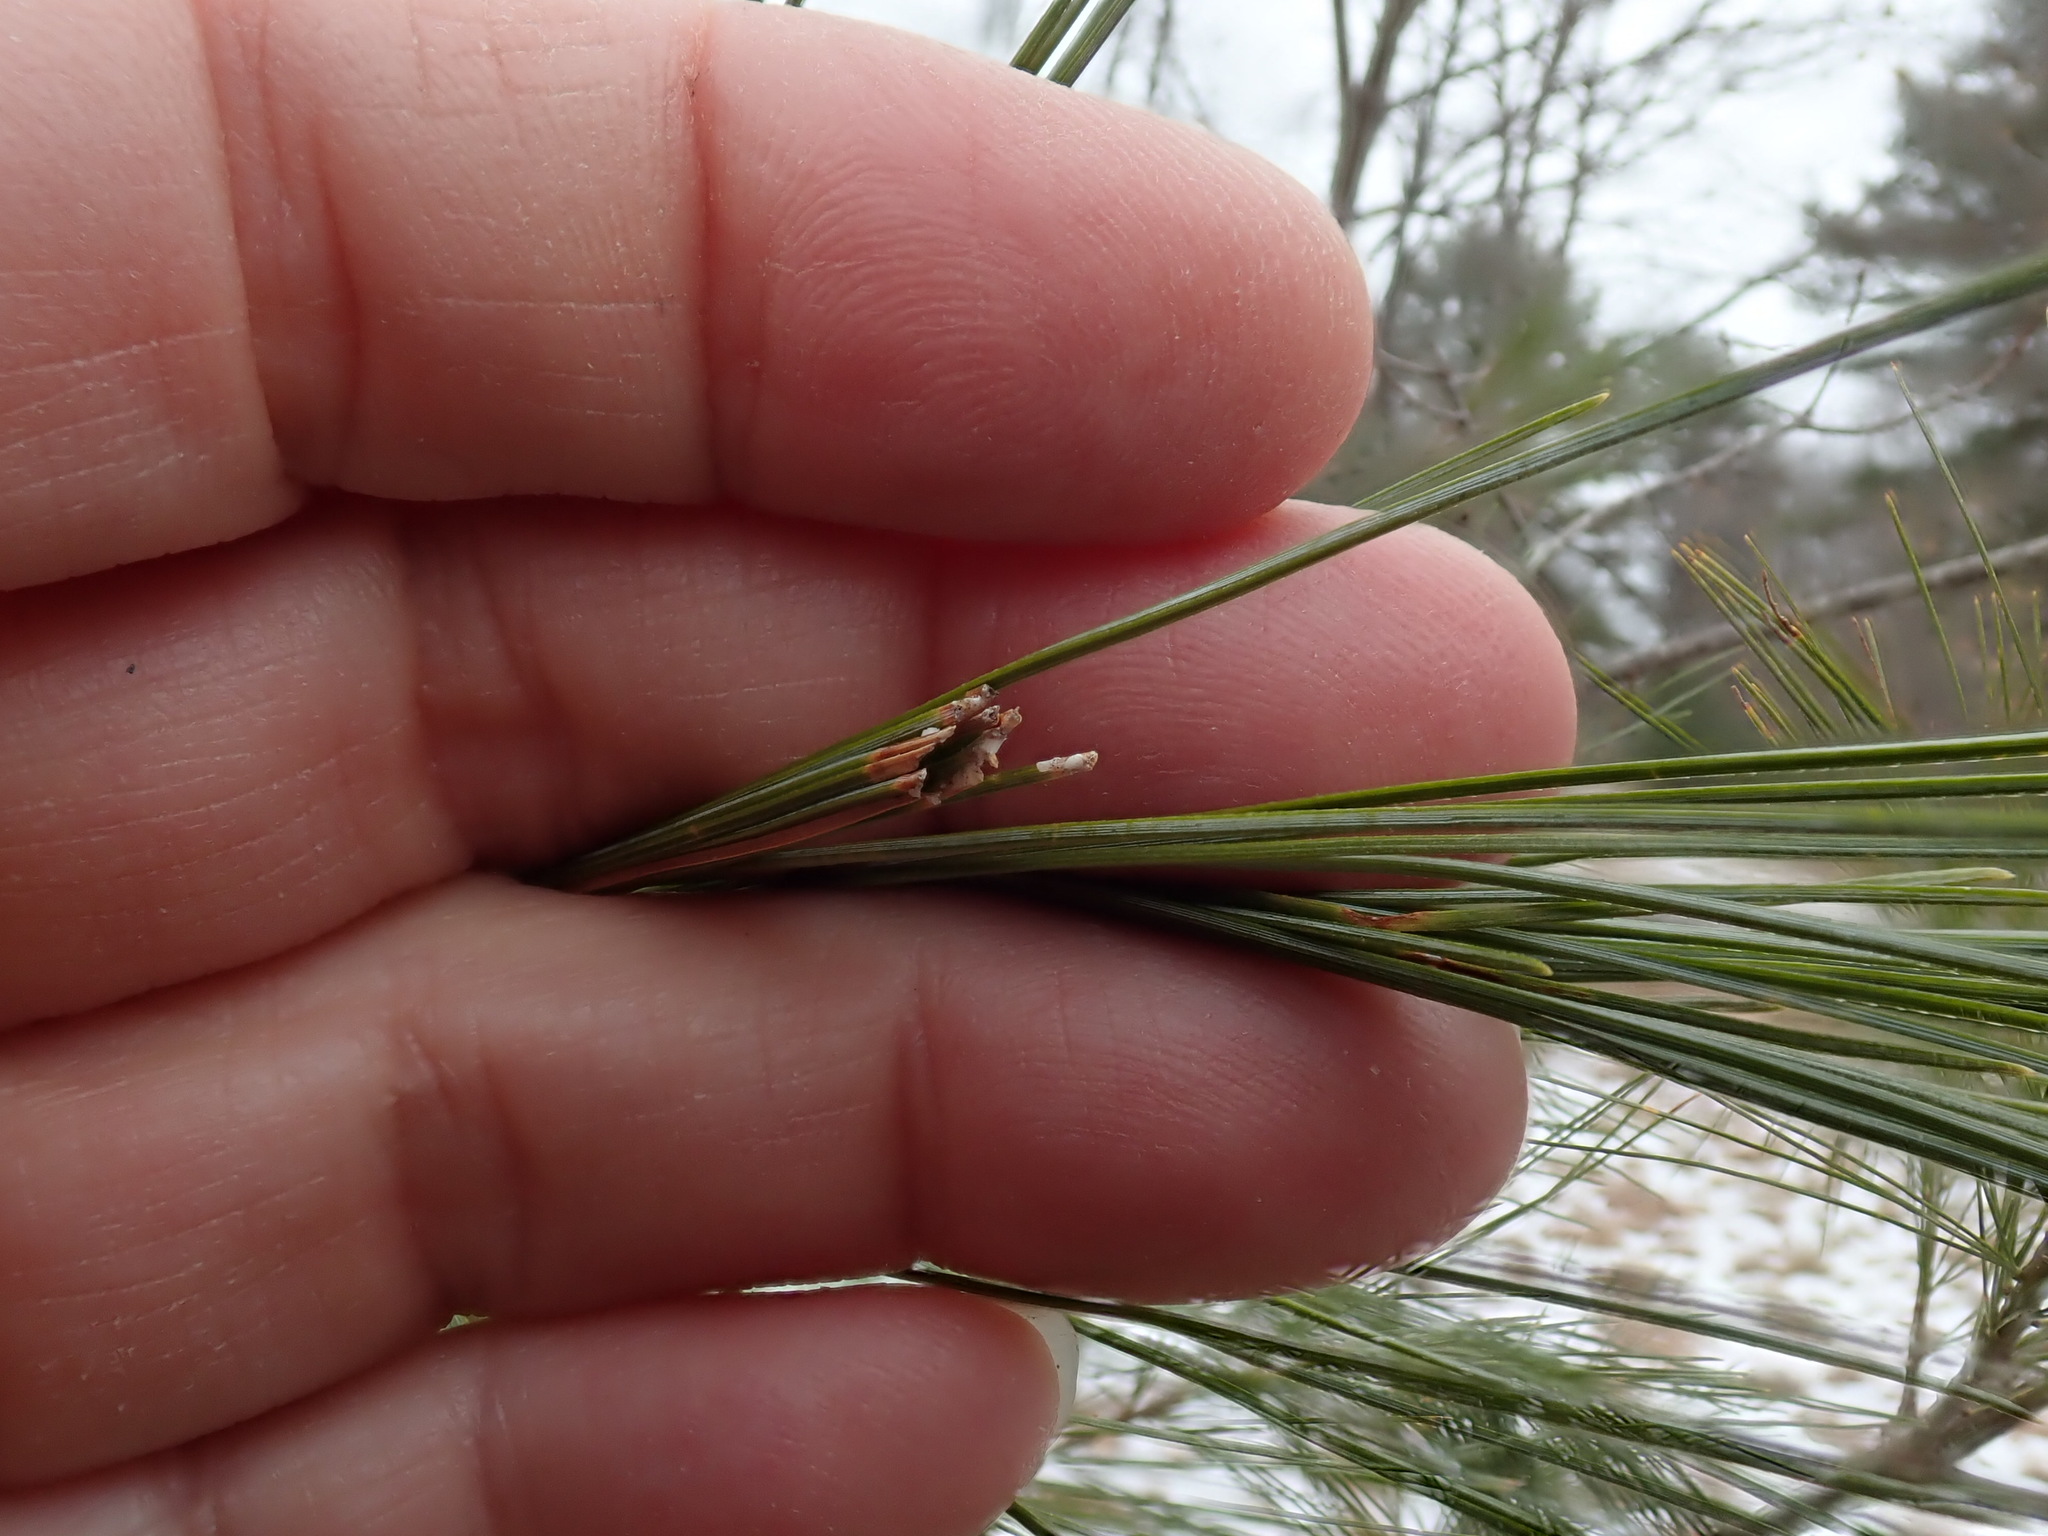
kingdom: Animalia
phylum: Arthropoda
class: Insecta
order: Lepidoptera
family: Tortricidae
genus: Argyrotaenia
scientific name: Argyrotaenia pinatubana
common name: Pine tube moth
